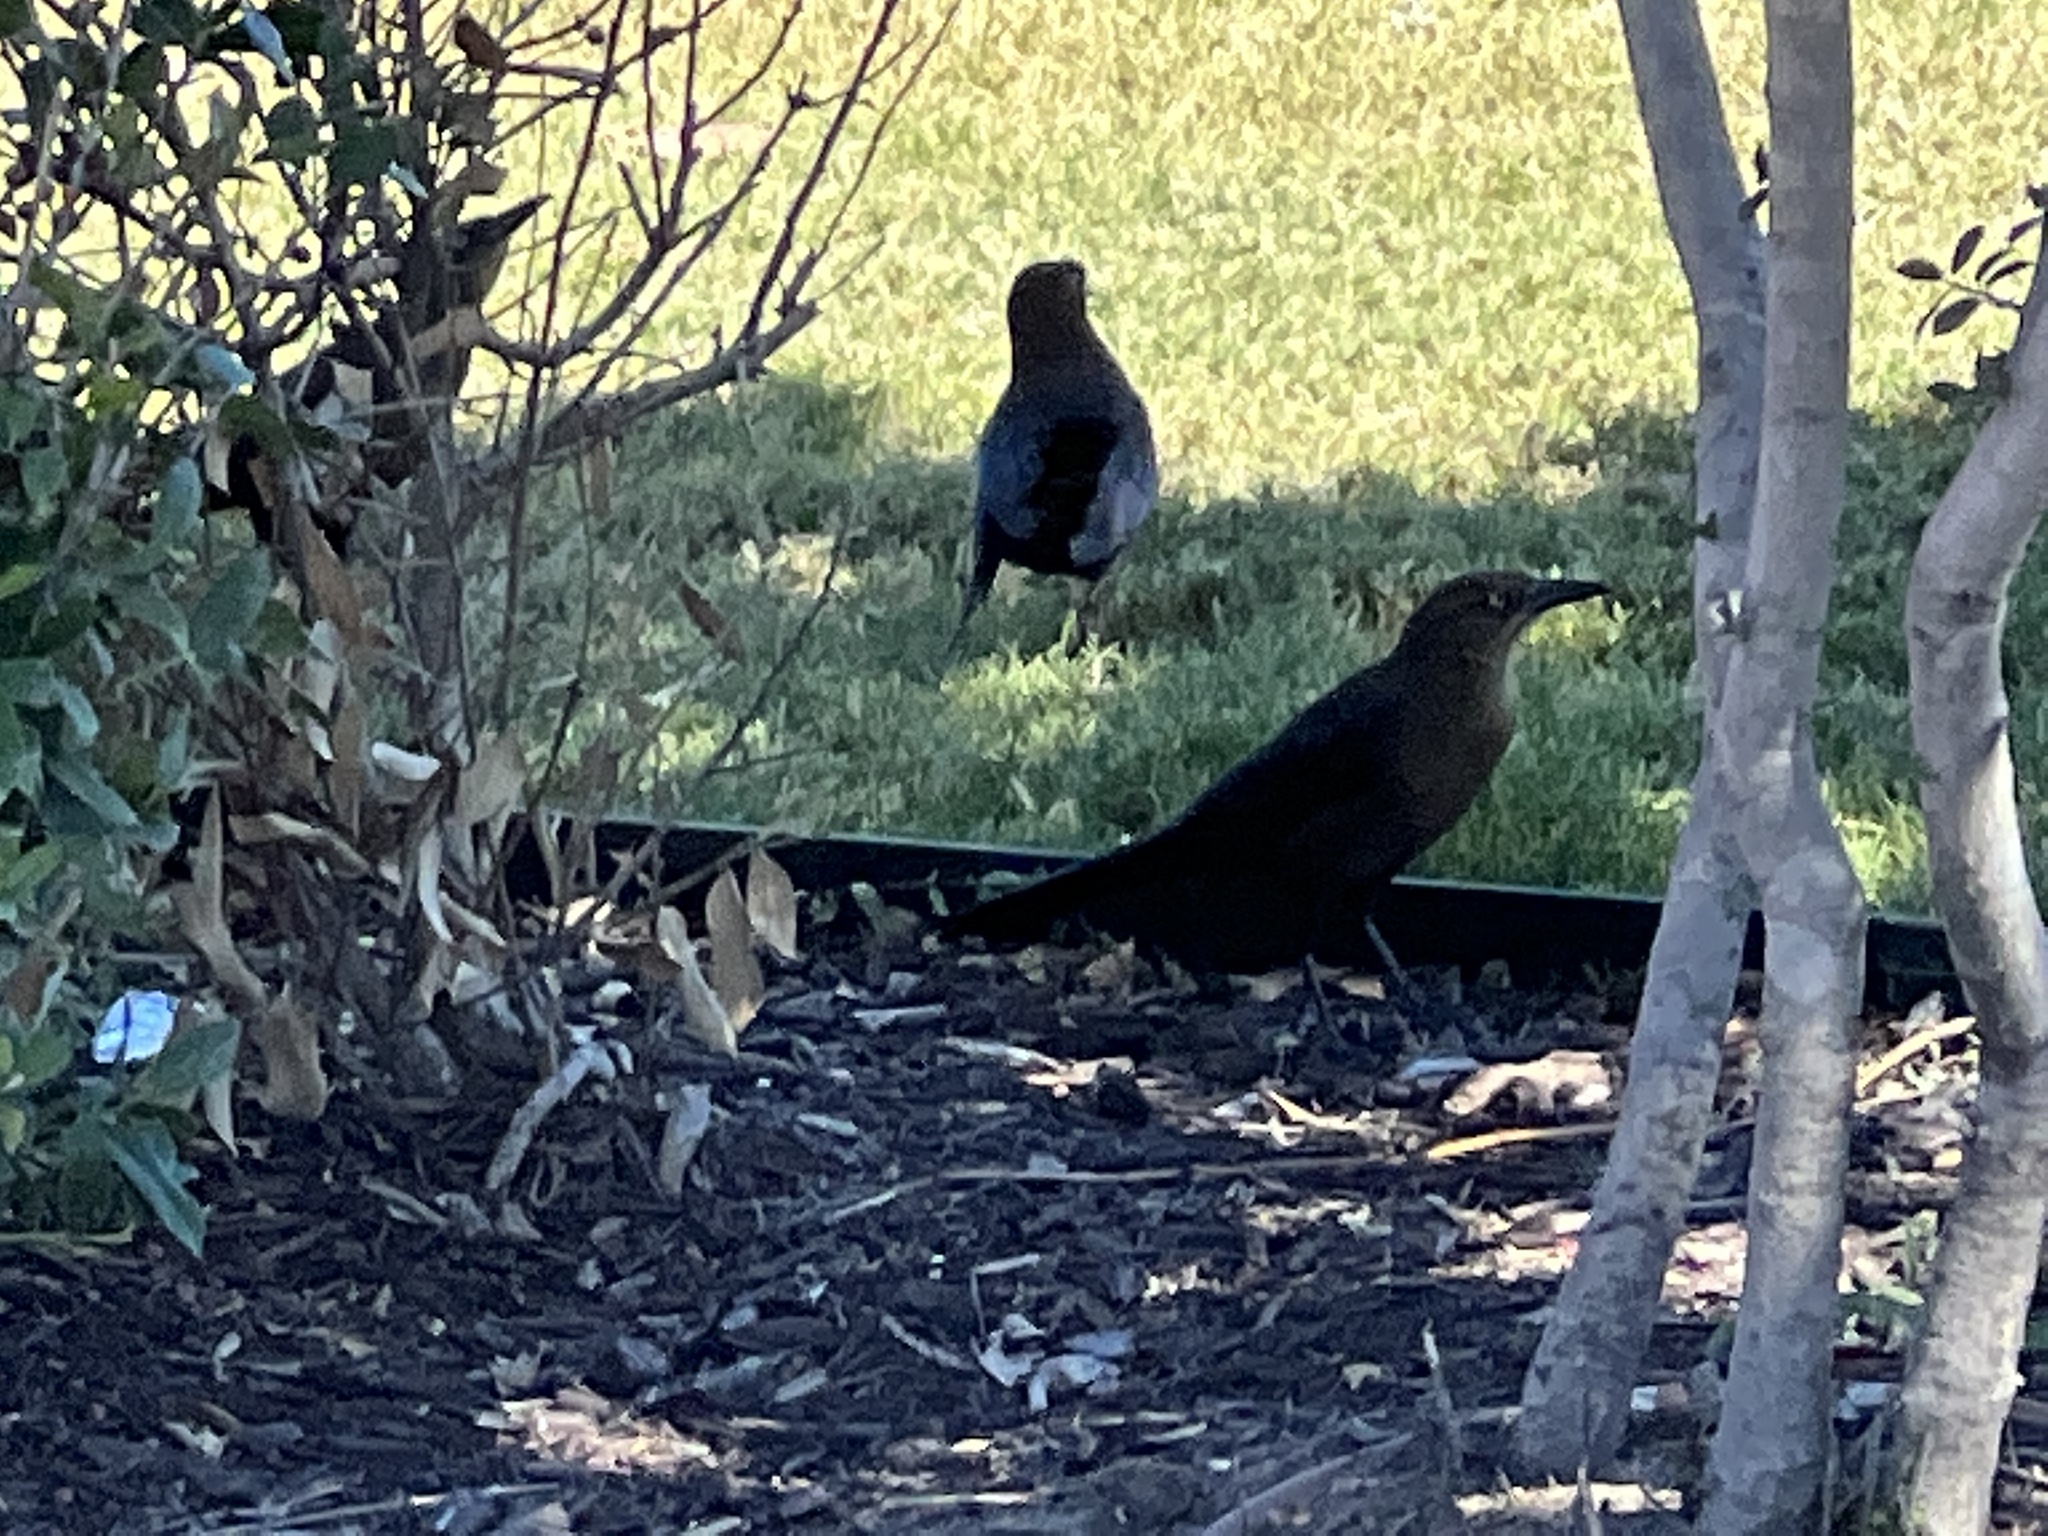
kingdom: Animalia
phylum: Chordata
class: Aves
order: Passeriformes
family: Icteridae
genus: Quiscalus
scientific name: Quiscalus mexicanus
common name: Great-tailed grackle
